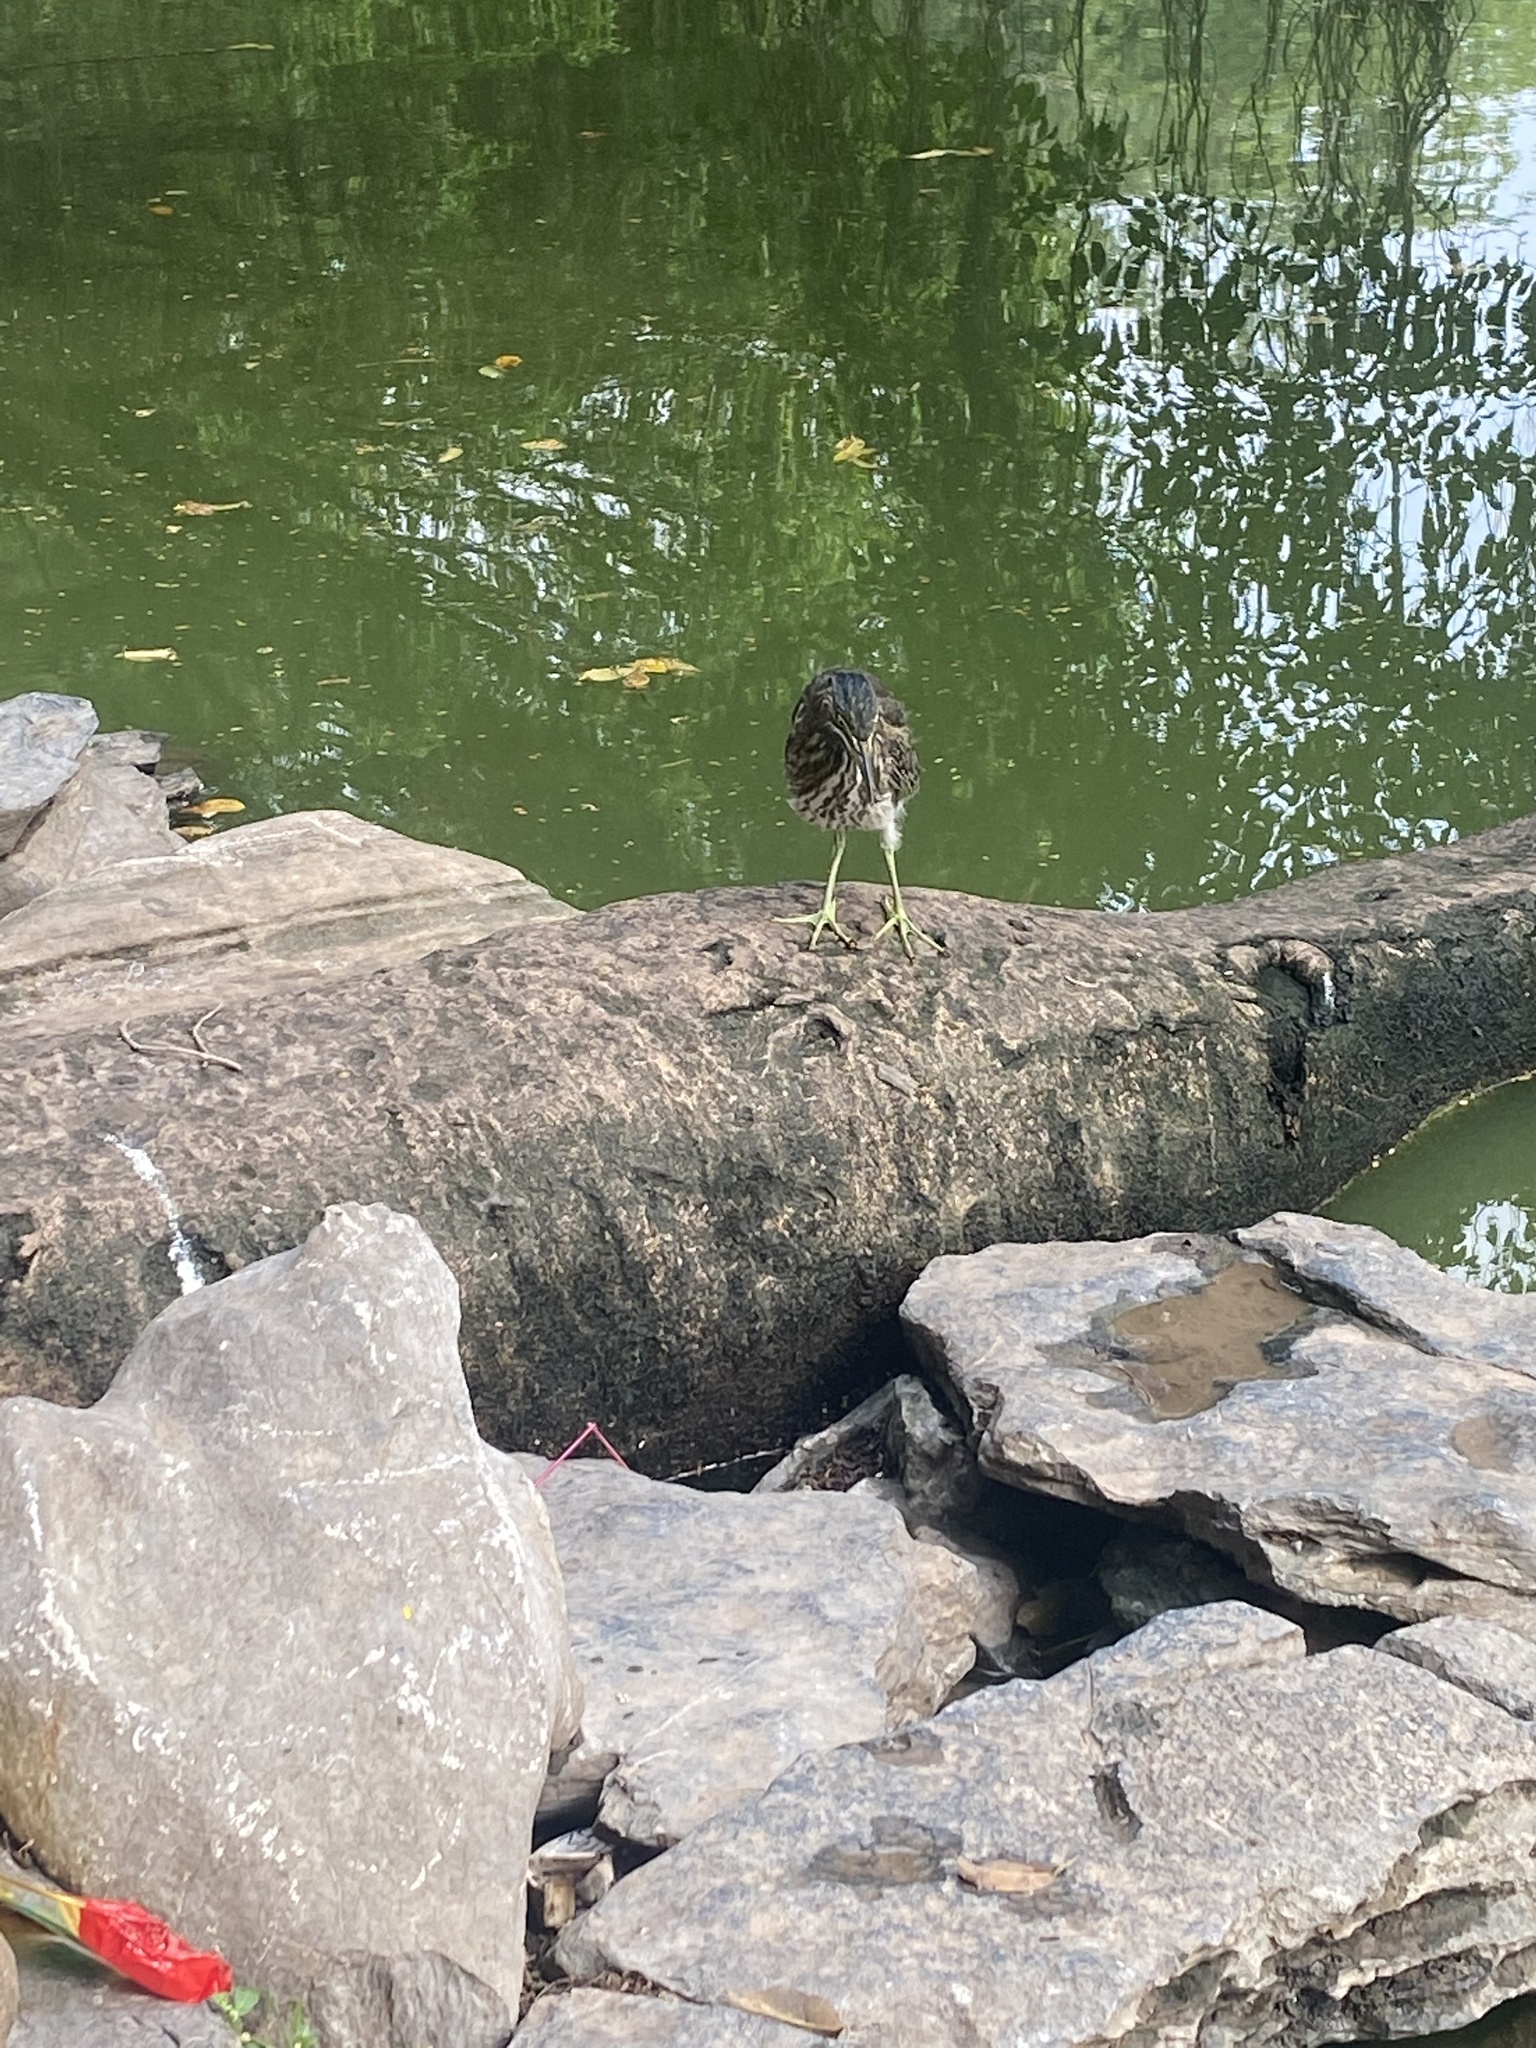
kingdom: Animalia
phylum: Chordata
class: Aves
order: Pelecaniformes
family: Ardeidae
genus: Butorides
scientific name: Butorides striata
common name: Striated heron
